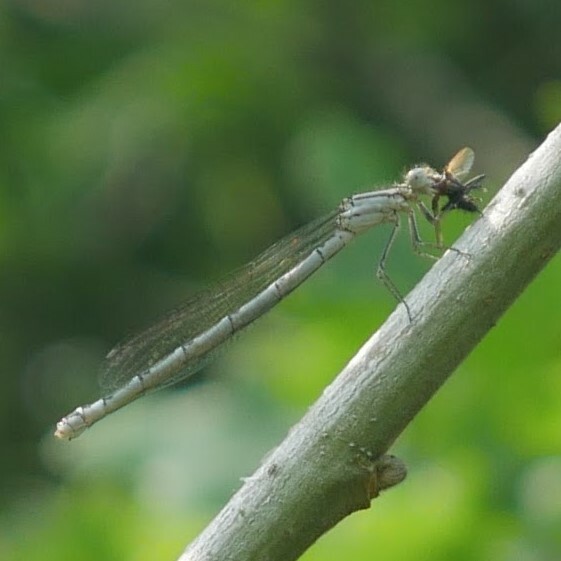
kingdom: Animalia
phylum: Arthropoda
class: Insecta
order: Odonata
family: Coenagrionidae
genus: Enallagma
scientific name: Enallagma cyathigerum
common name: Common blue damselfly
